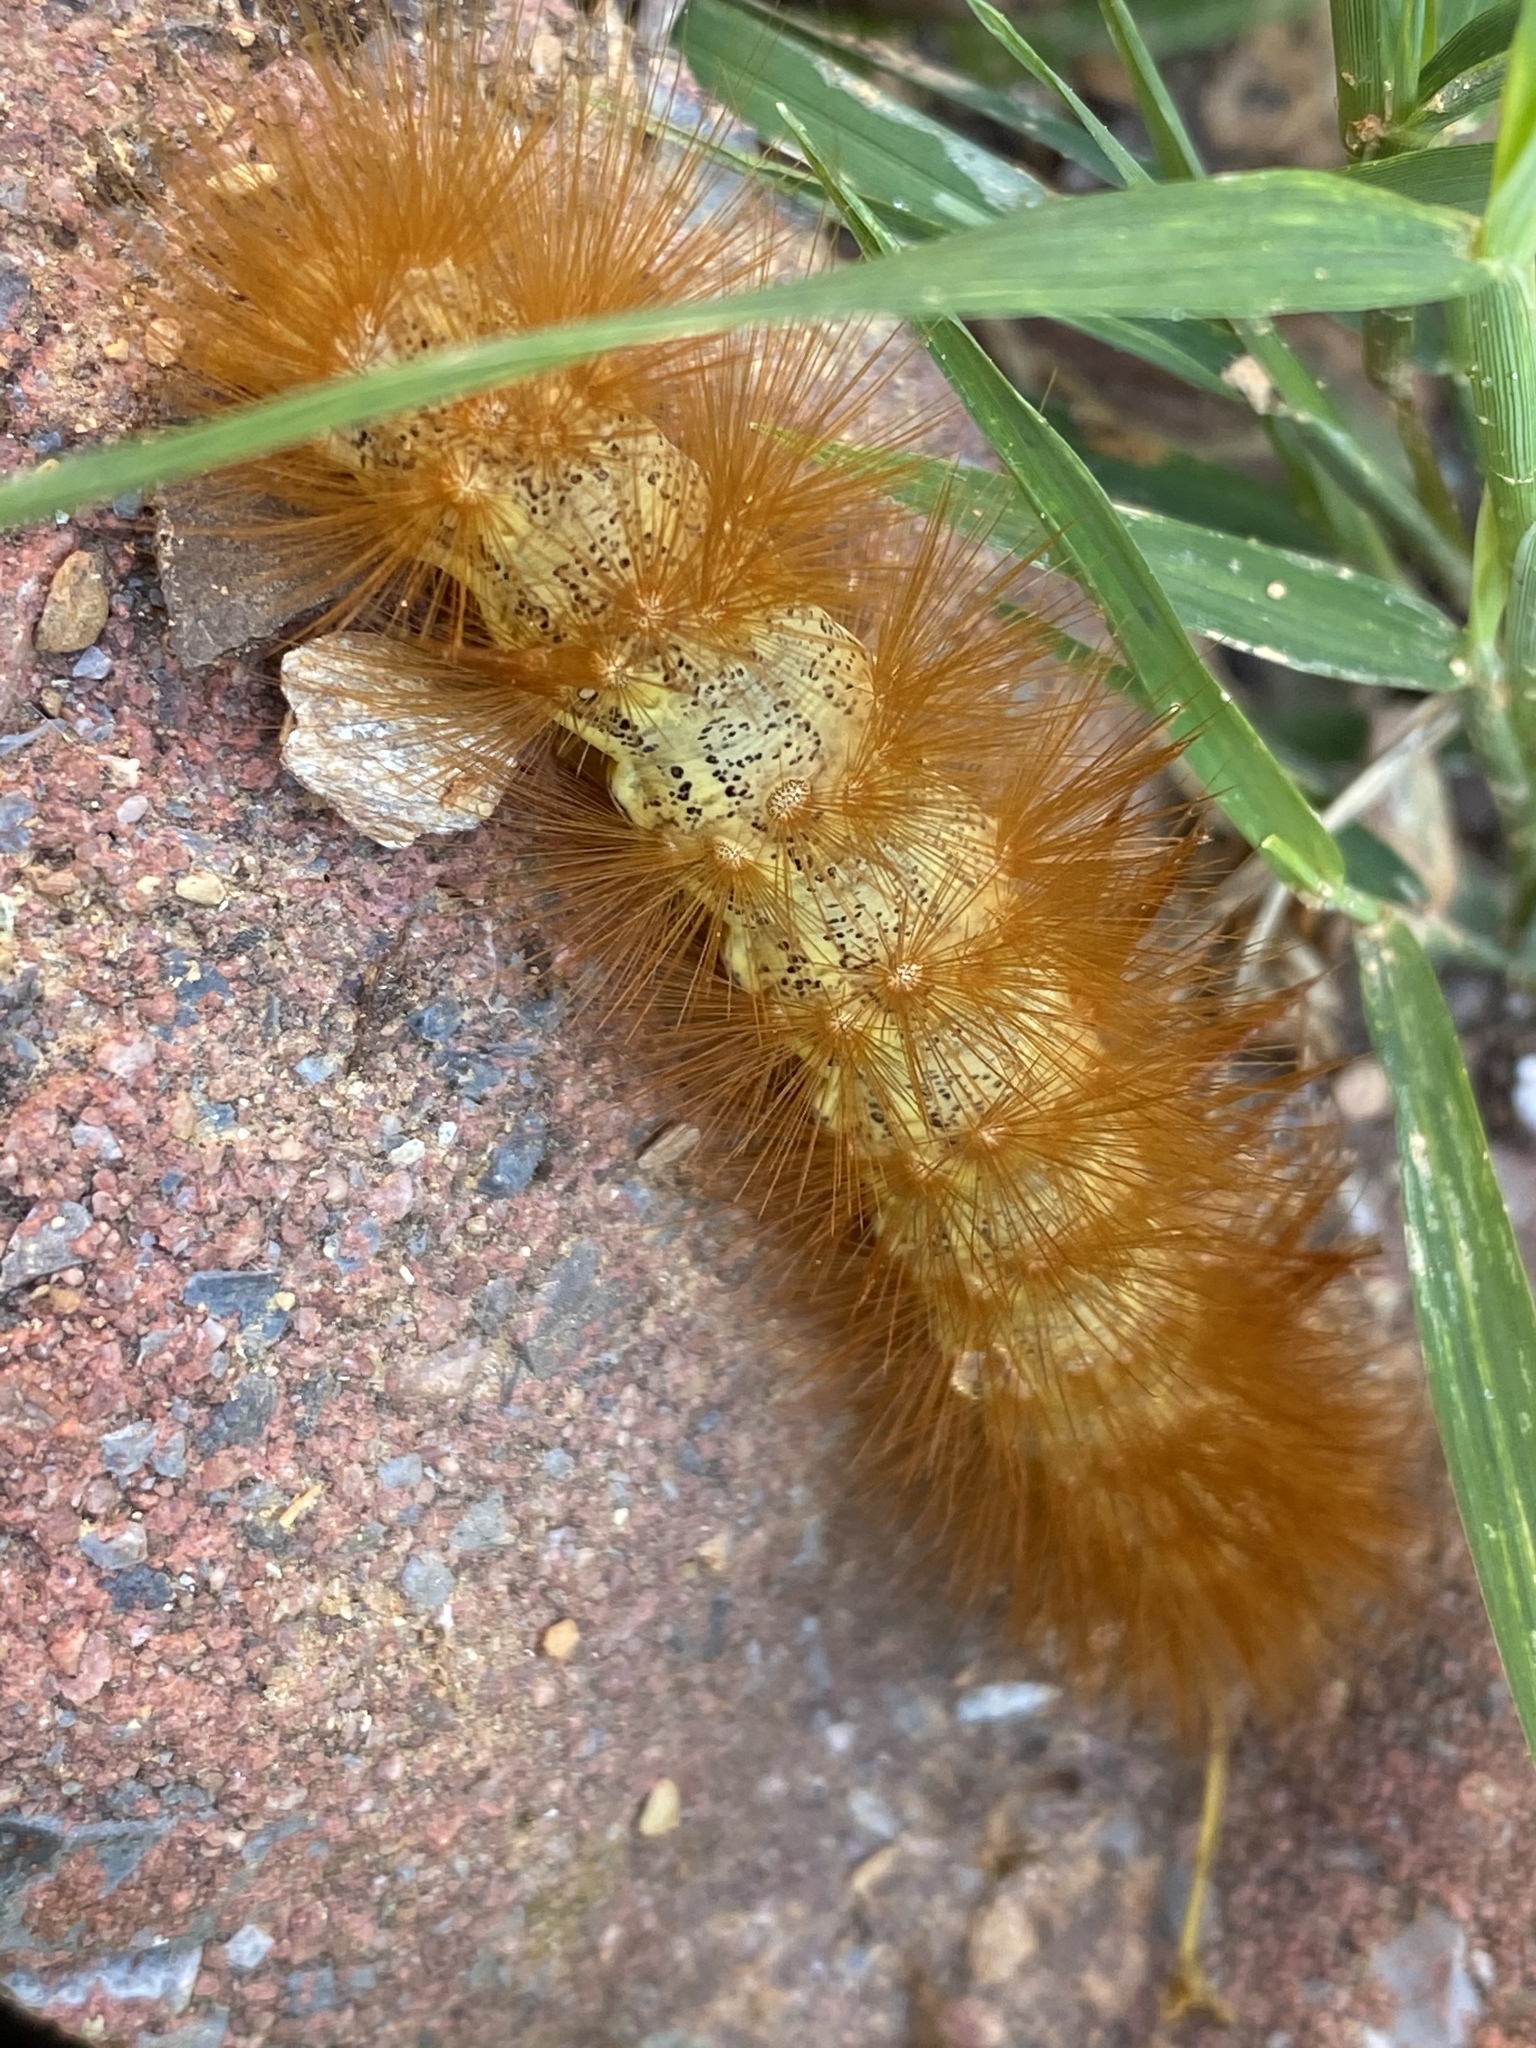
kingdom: Animalia
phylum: Arthropoda
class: Insecta
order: Lepidoptera
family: Erebidae
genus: Estigmene
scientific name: Estigmene acrea
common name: Salt marsh moth
